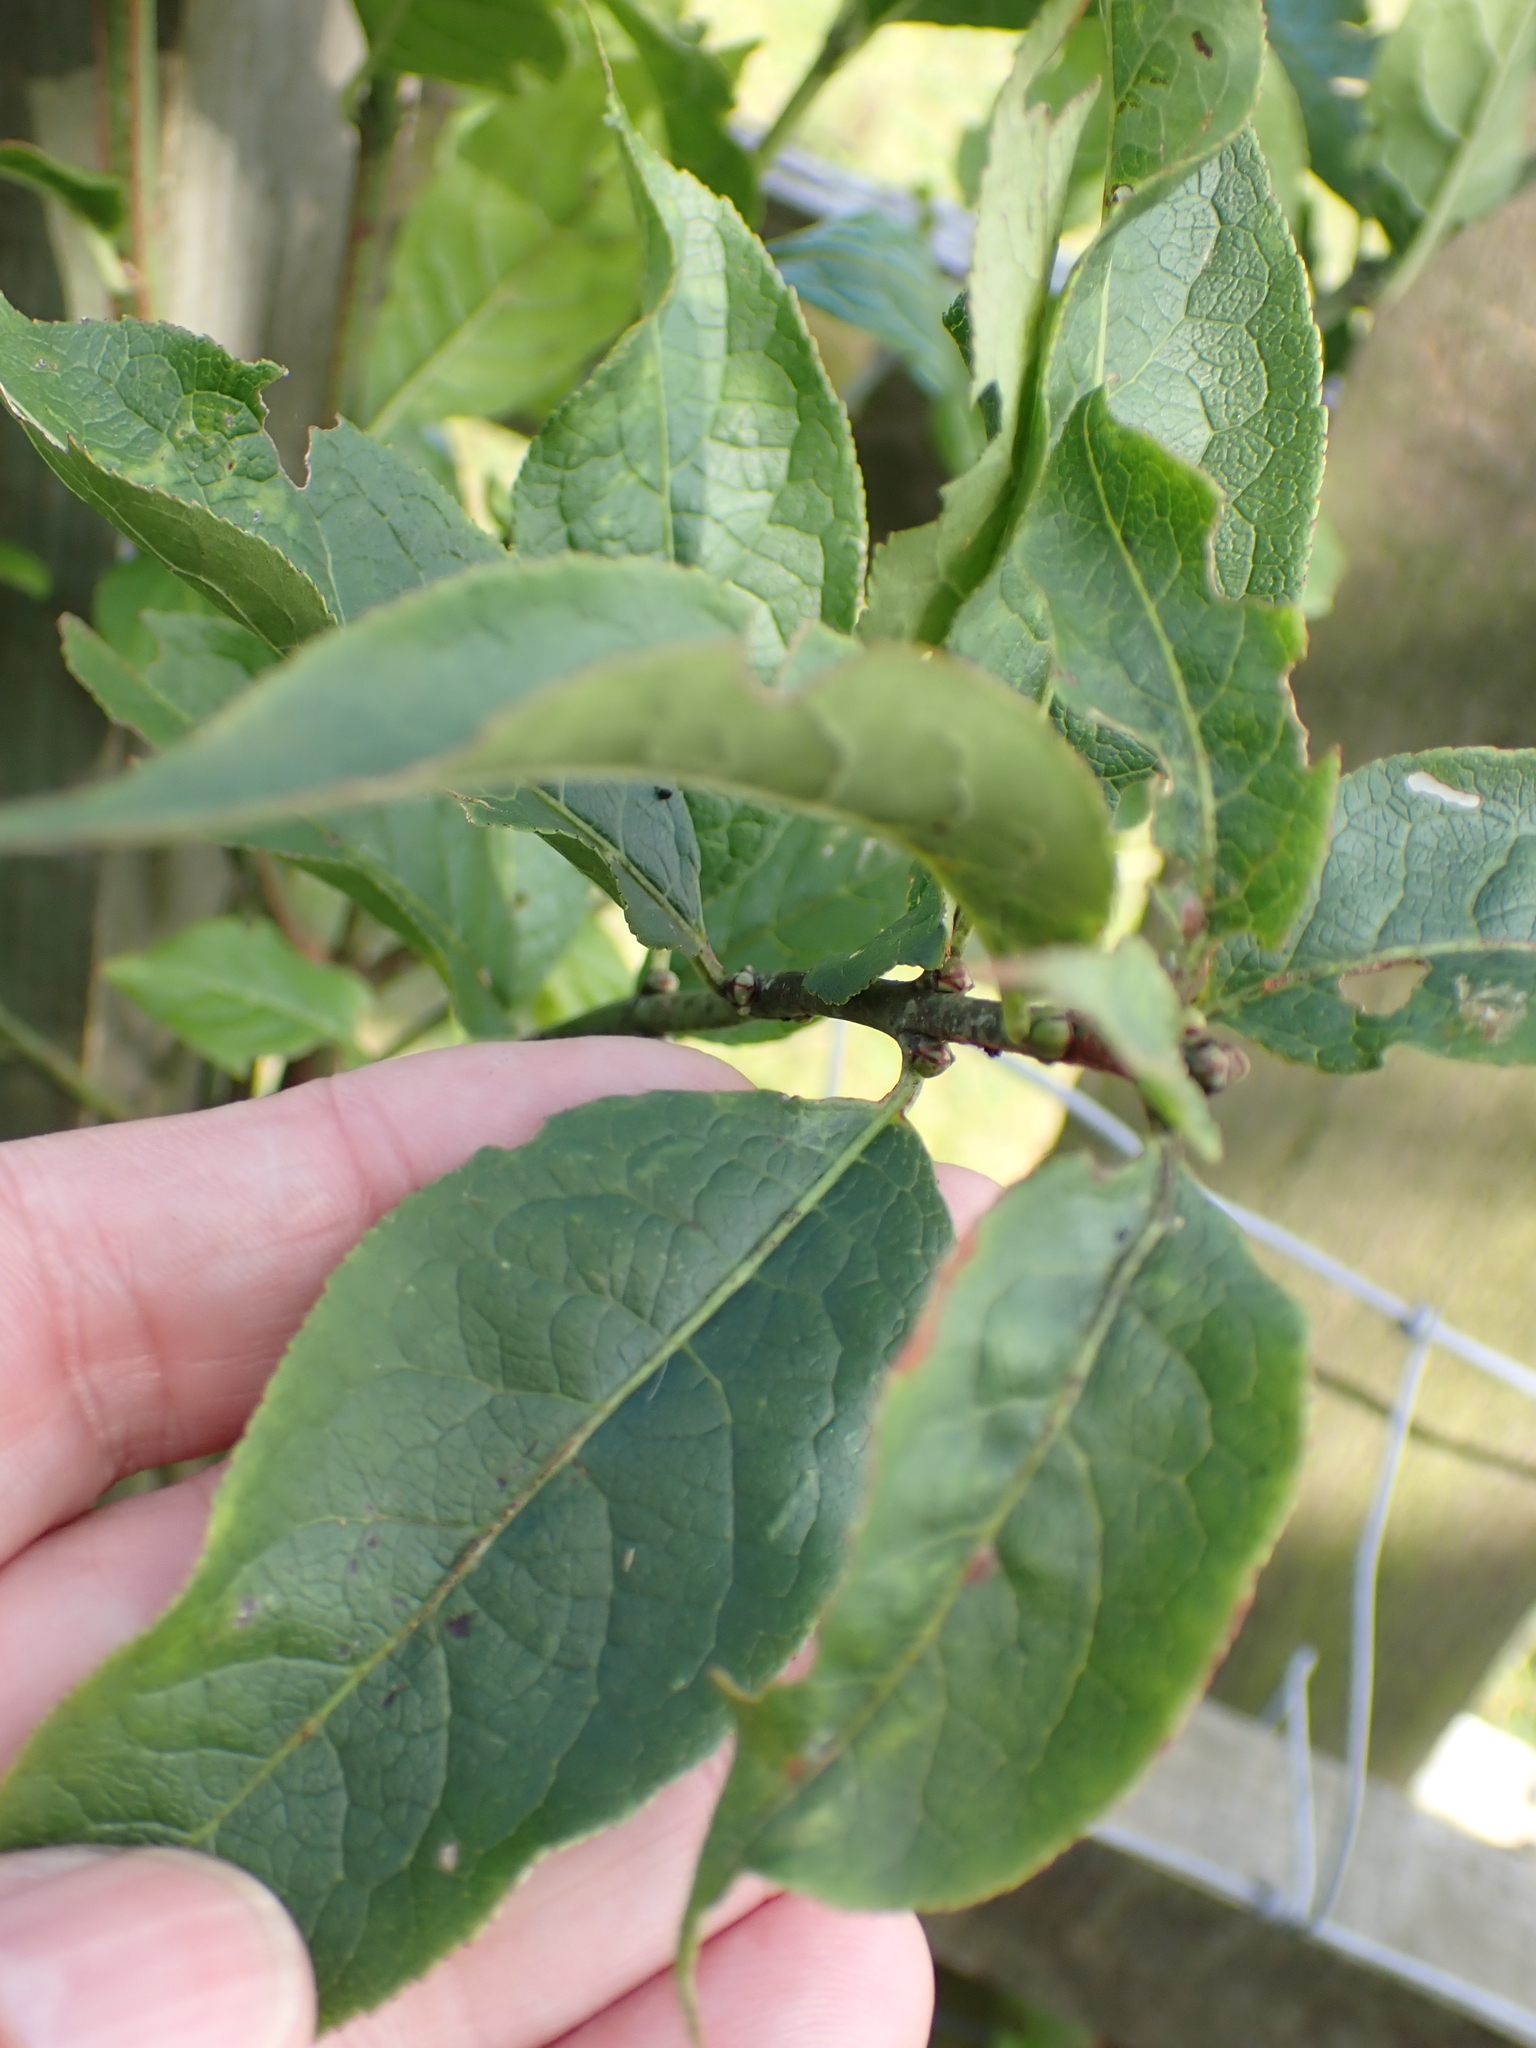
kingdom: Plantae
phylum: Tracheophyta
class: Magnoliopsida
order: Celastrales
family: Celastraceae
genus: Euonymus
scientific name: Euonymus europaeus
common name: Spindle
